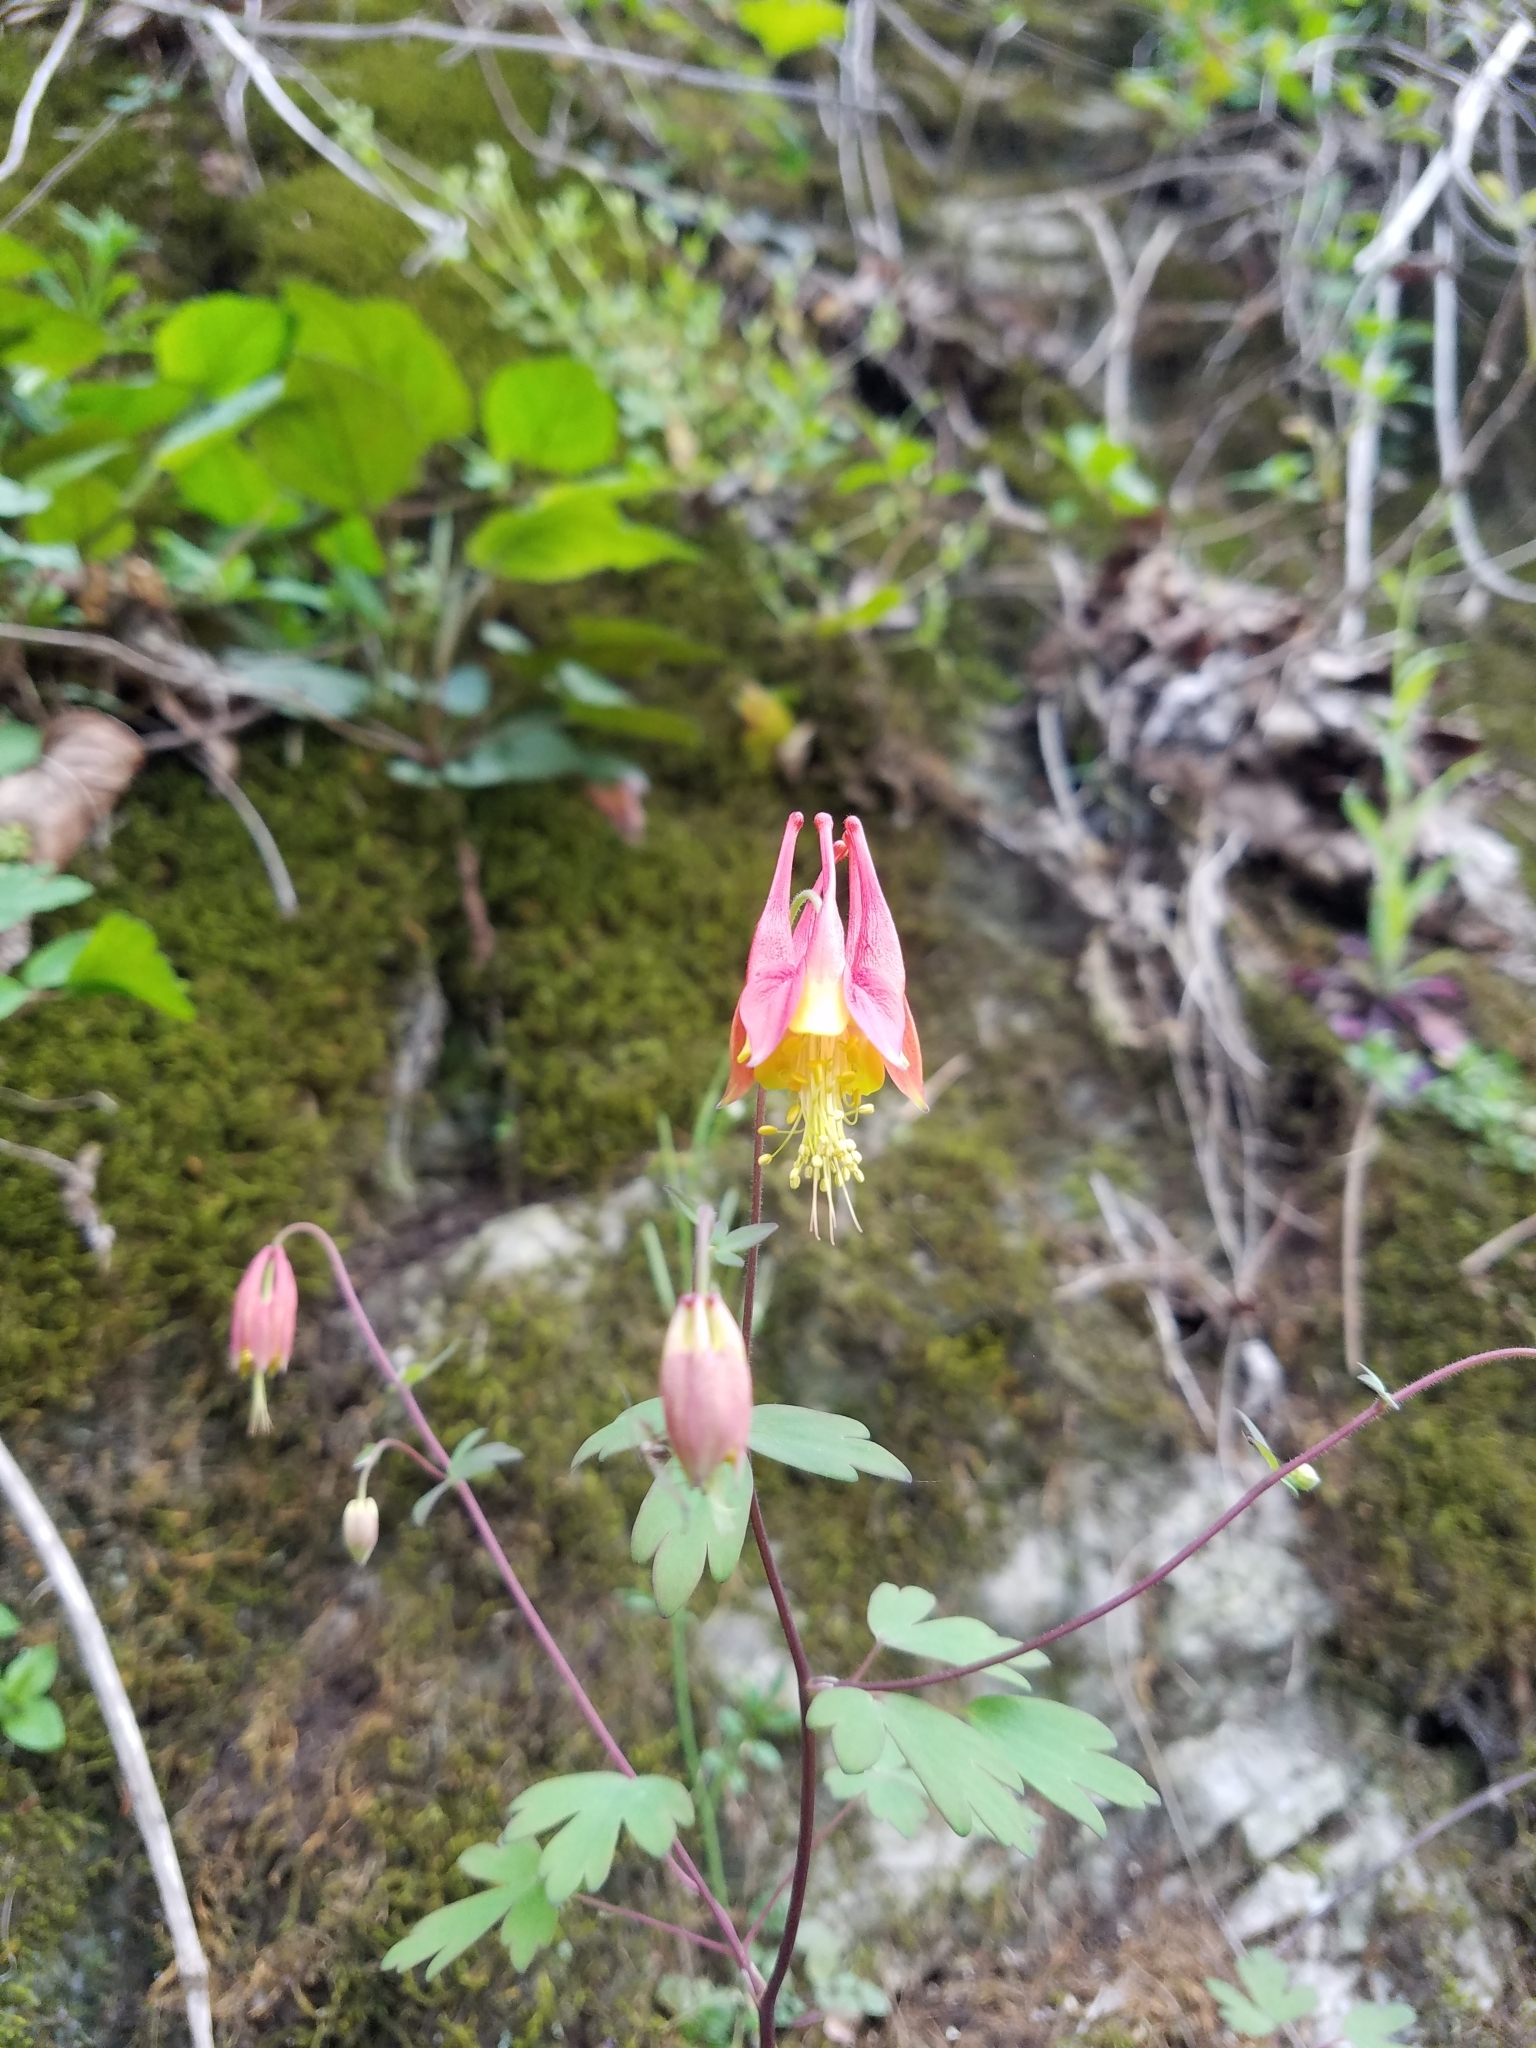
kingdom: Plantae
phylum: Tracheophyta
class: Magnoliopsida
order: Ranunculales
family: Ranunculaceae
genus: Aquilegia
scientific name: Aquilegia canadensis
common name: American columbine
